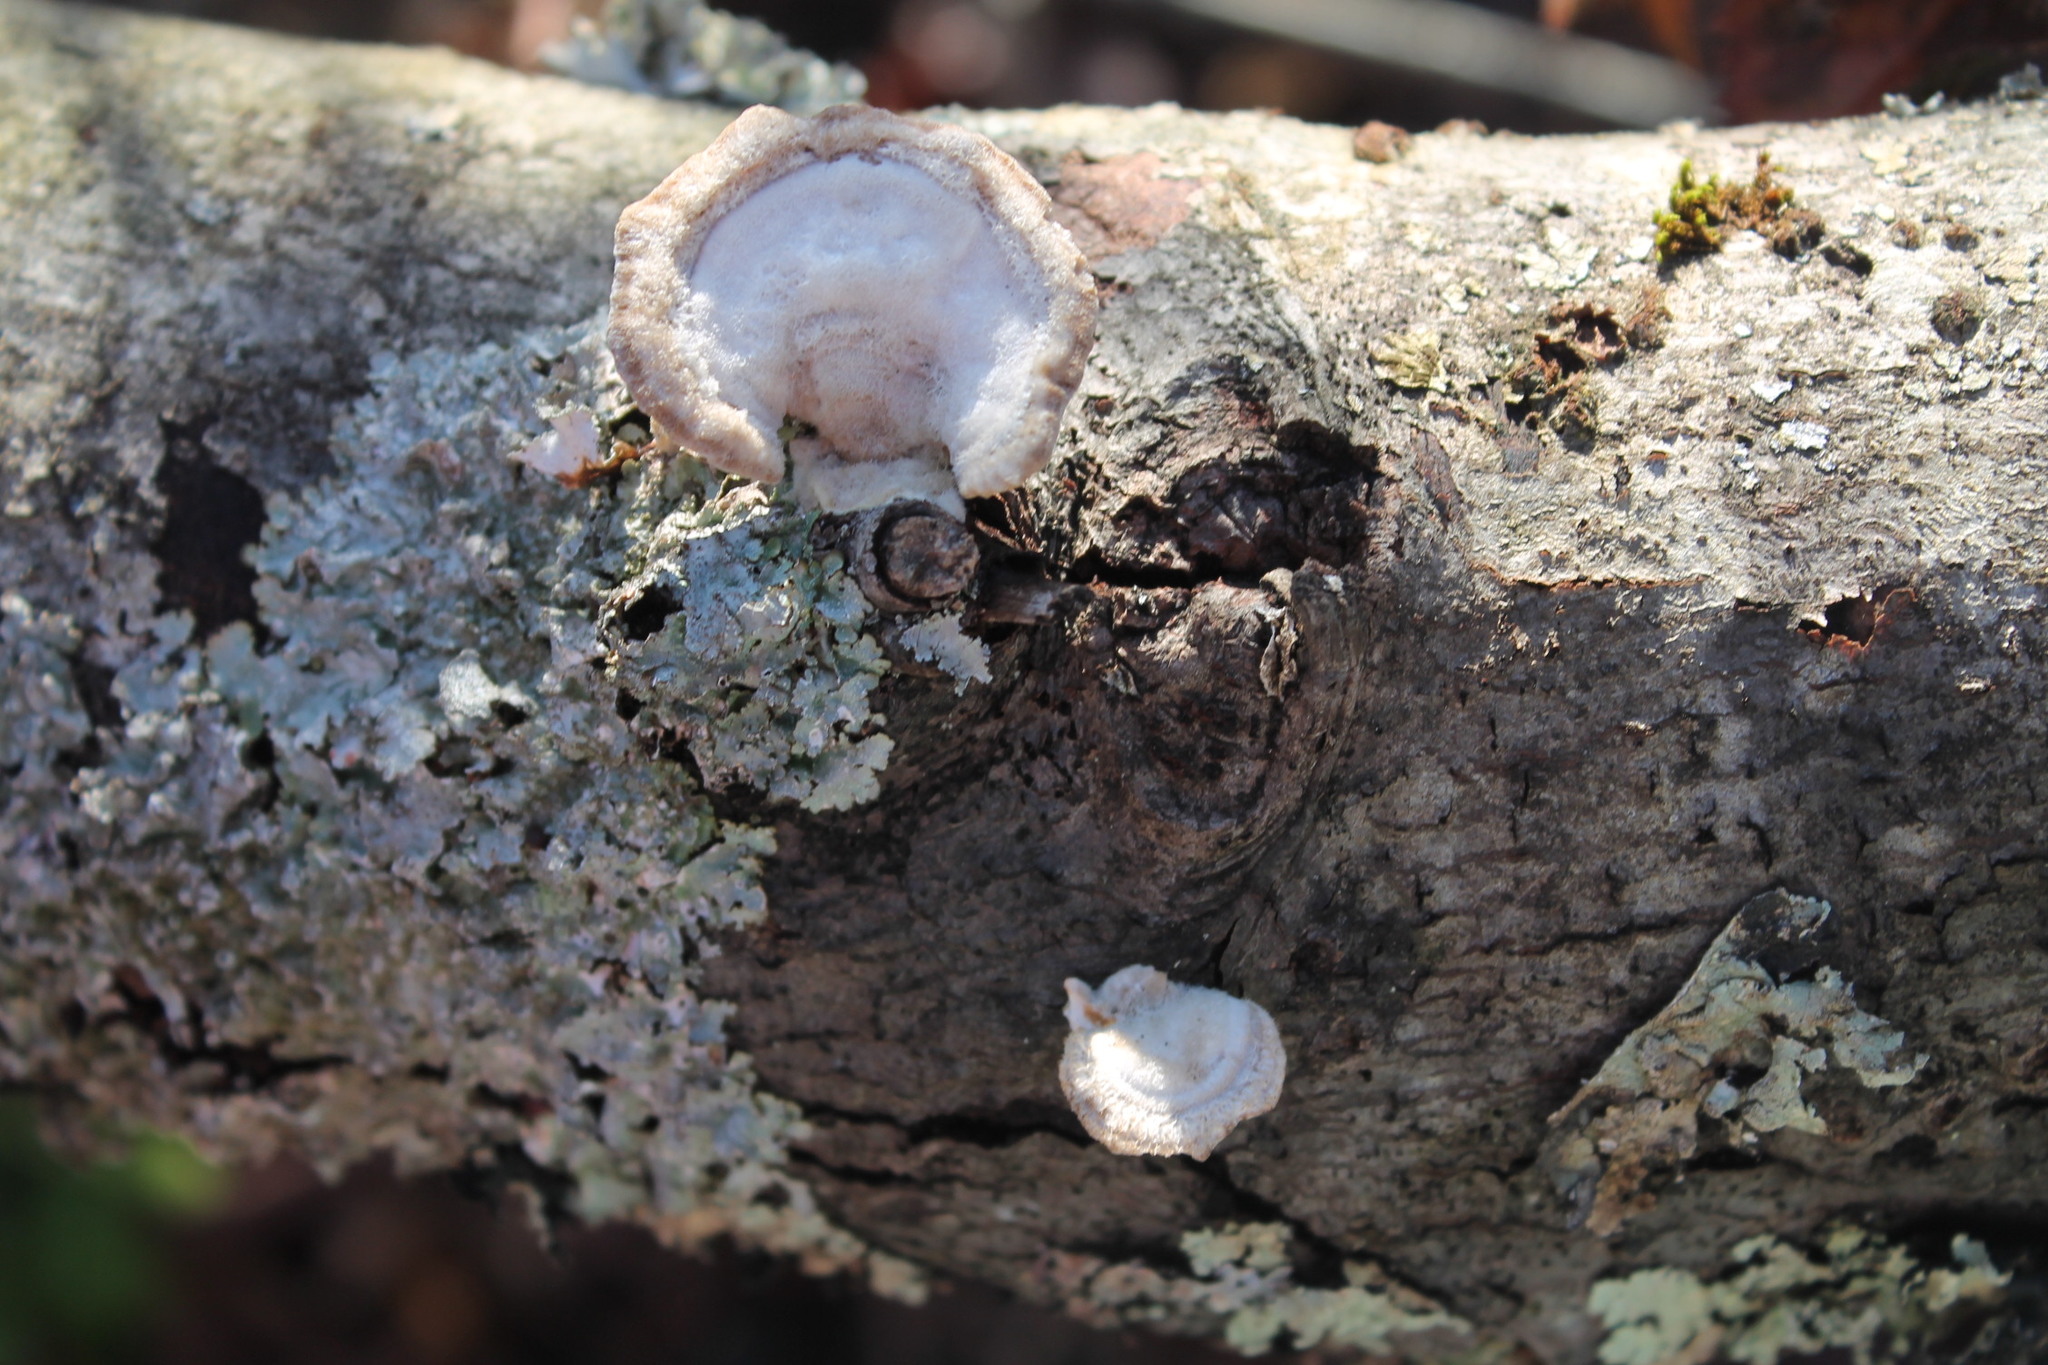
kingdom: Fungi
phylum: Basidiomycota
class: Agaricomycetes
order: Polyporales
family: Polyporaceae
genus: Trametes
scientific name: Trametes hirsuta
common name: Hairy bracket
